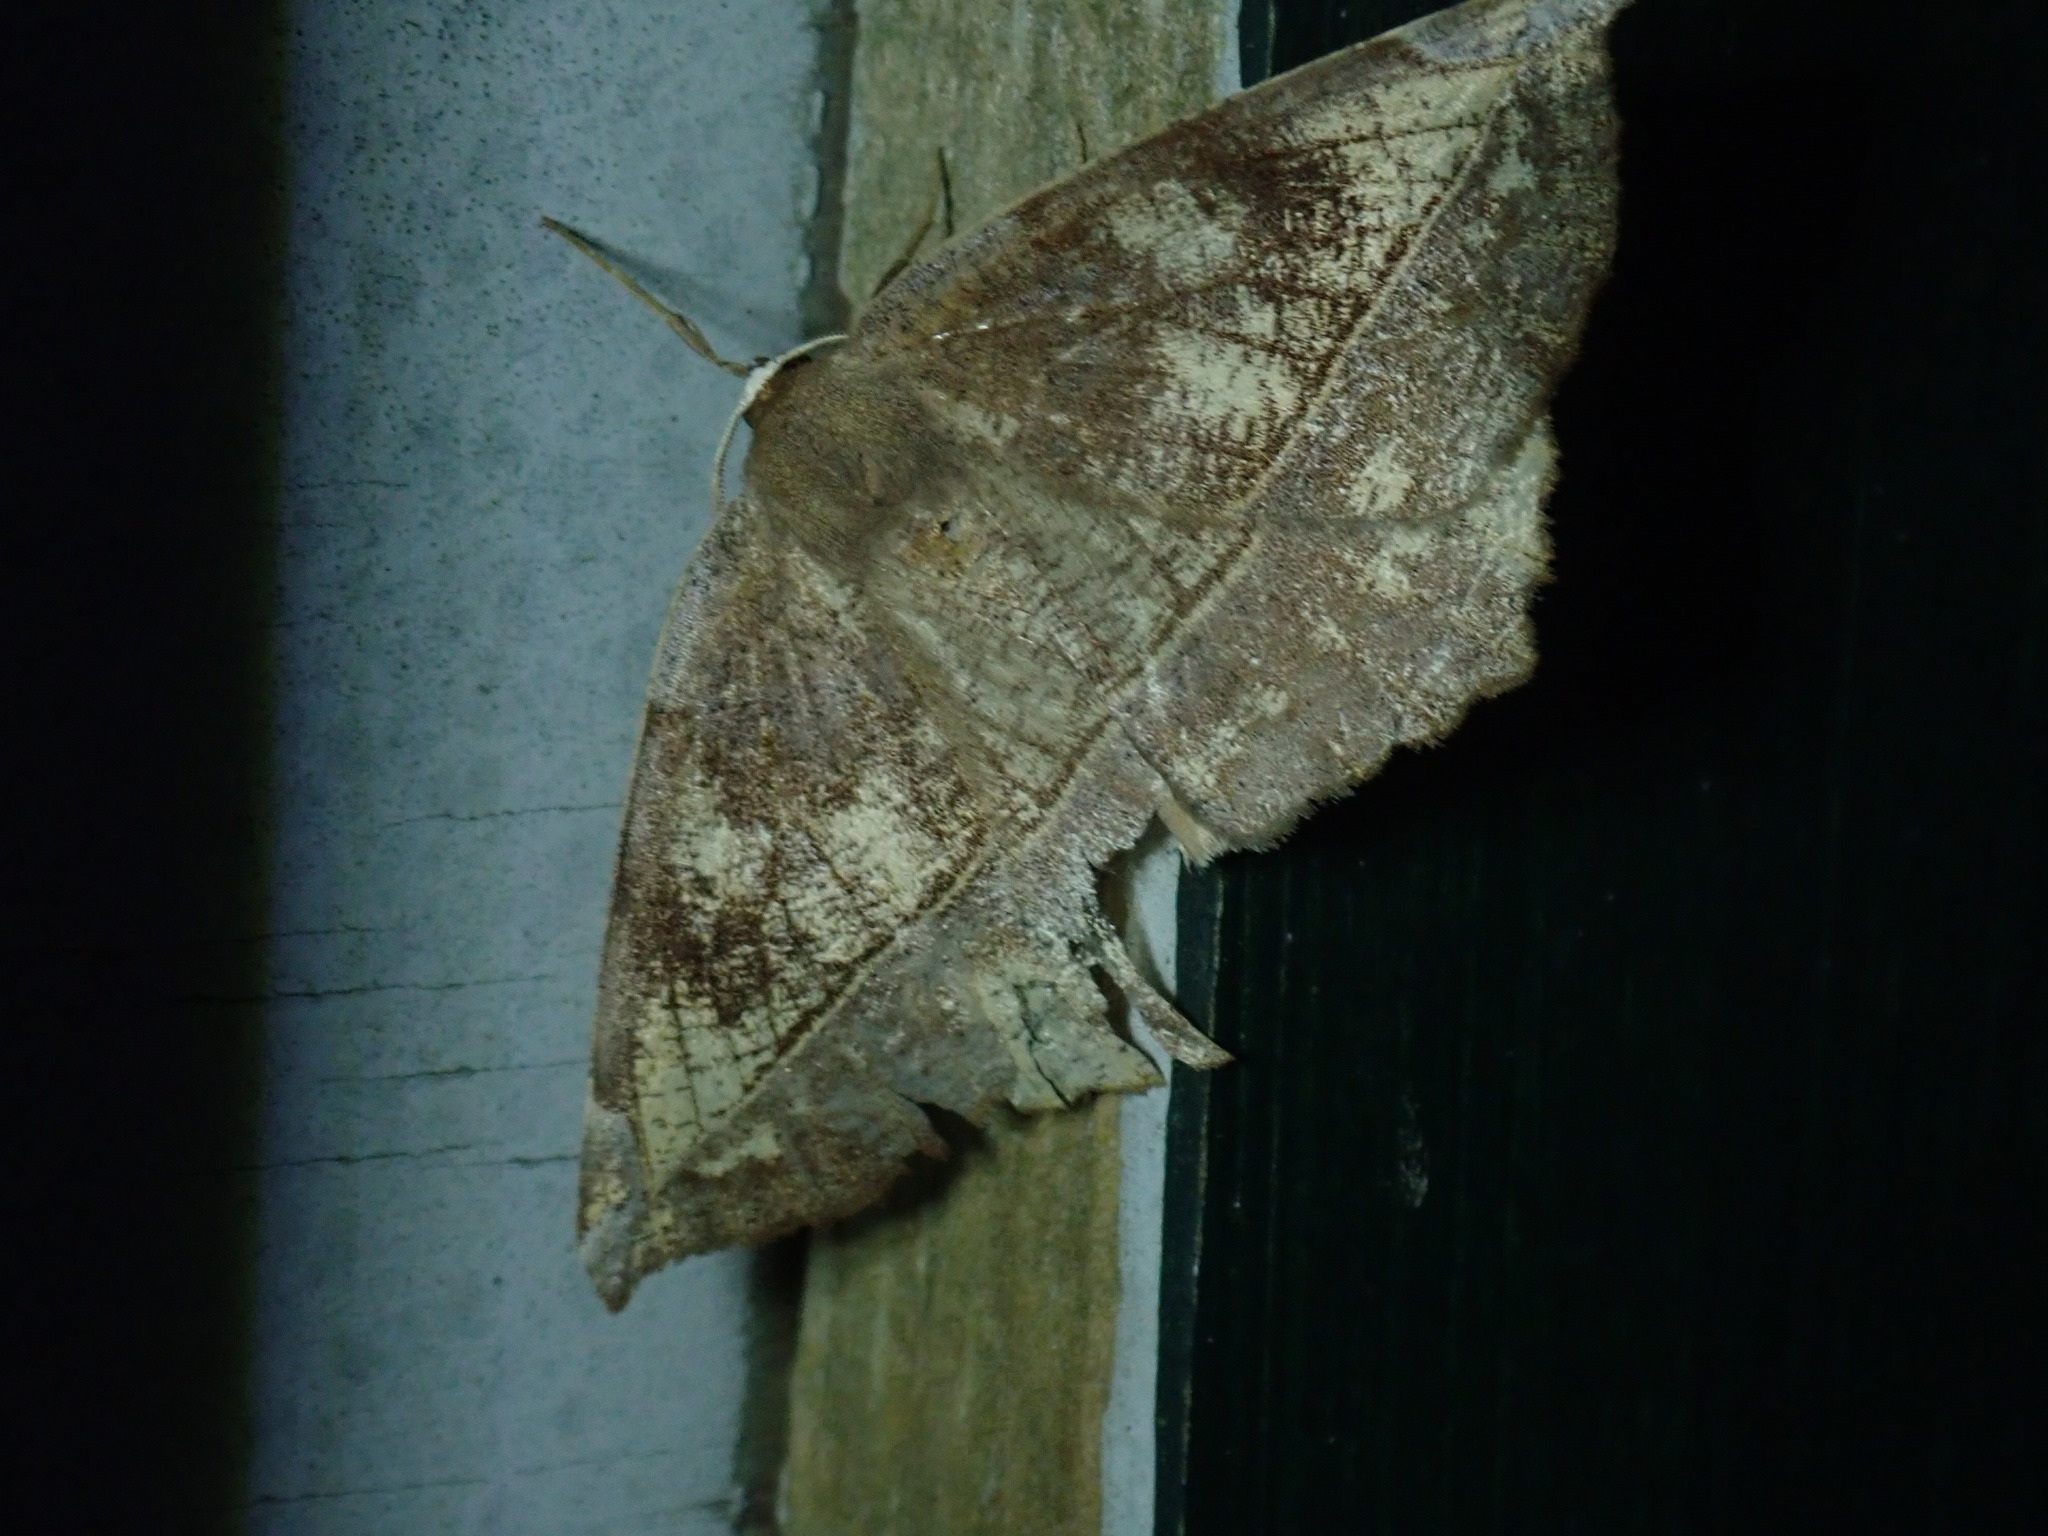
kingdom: Animalia
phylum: Arthropoda
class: Insecta
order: Lepidoptera
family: Geometridae
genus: Eutrapela
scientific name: Eutrapela clemataria
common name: Curved-toothed geometer
